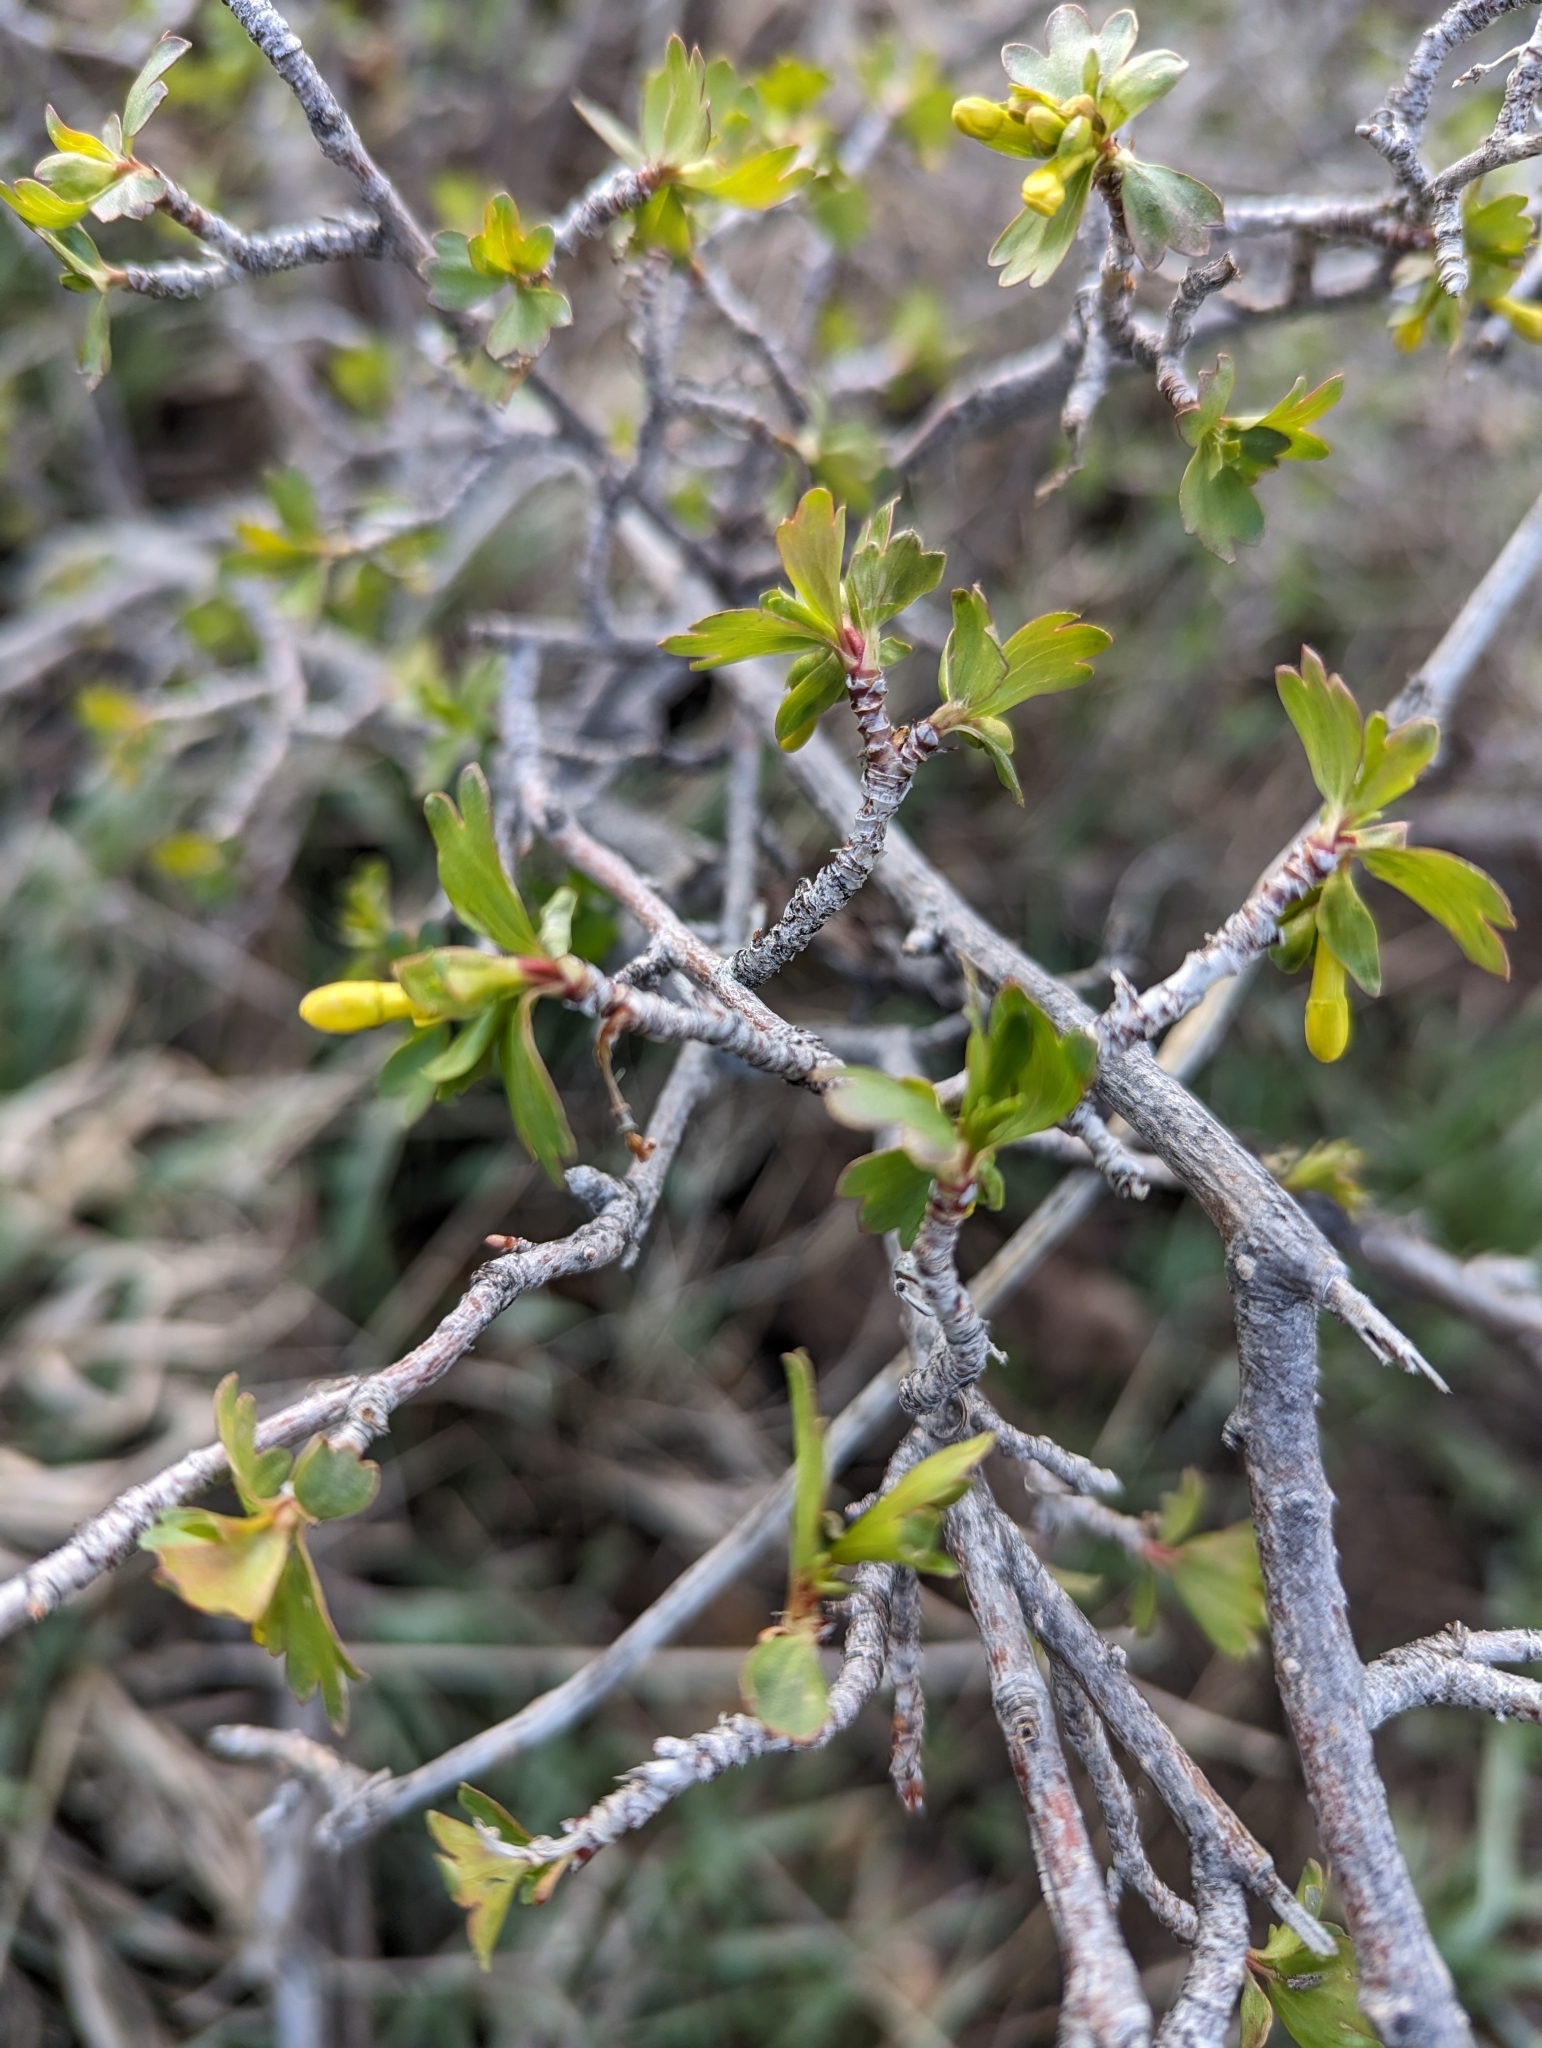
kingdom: Plantae
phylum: Tracheophyta
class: Magnoliopsida
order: Saxifragales
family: Grossulariaceae
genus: Ribes
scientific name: Ribes aureum
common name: Golden currant
